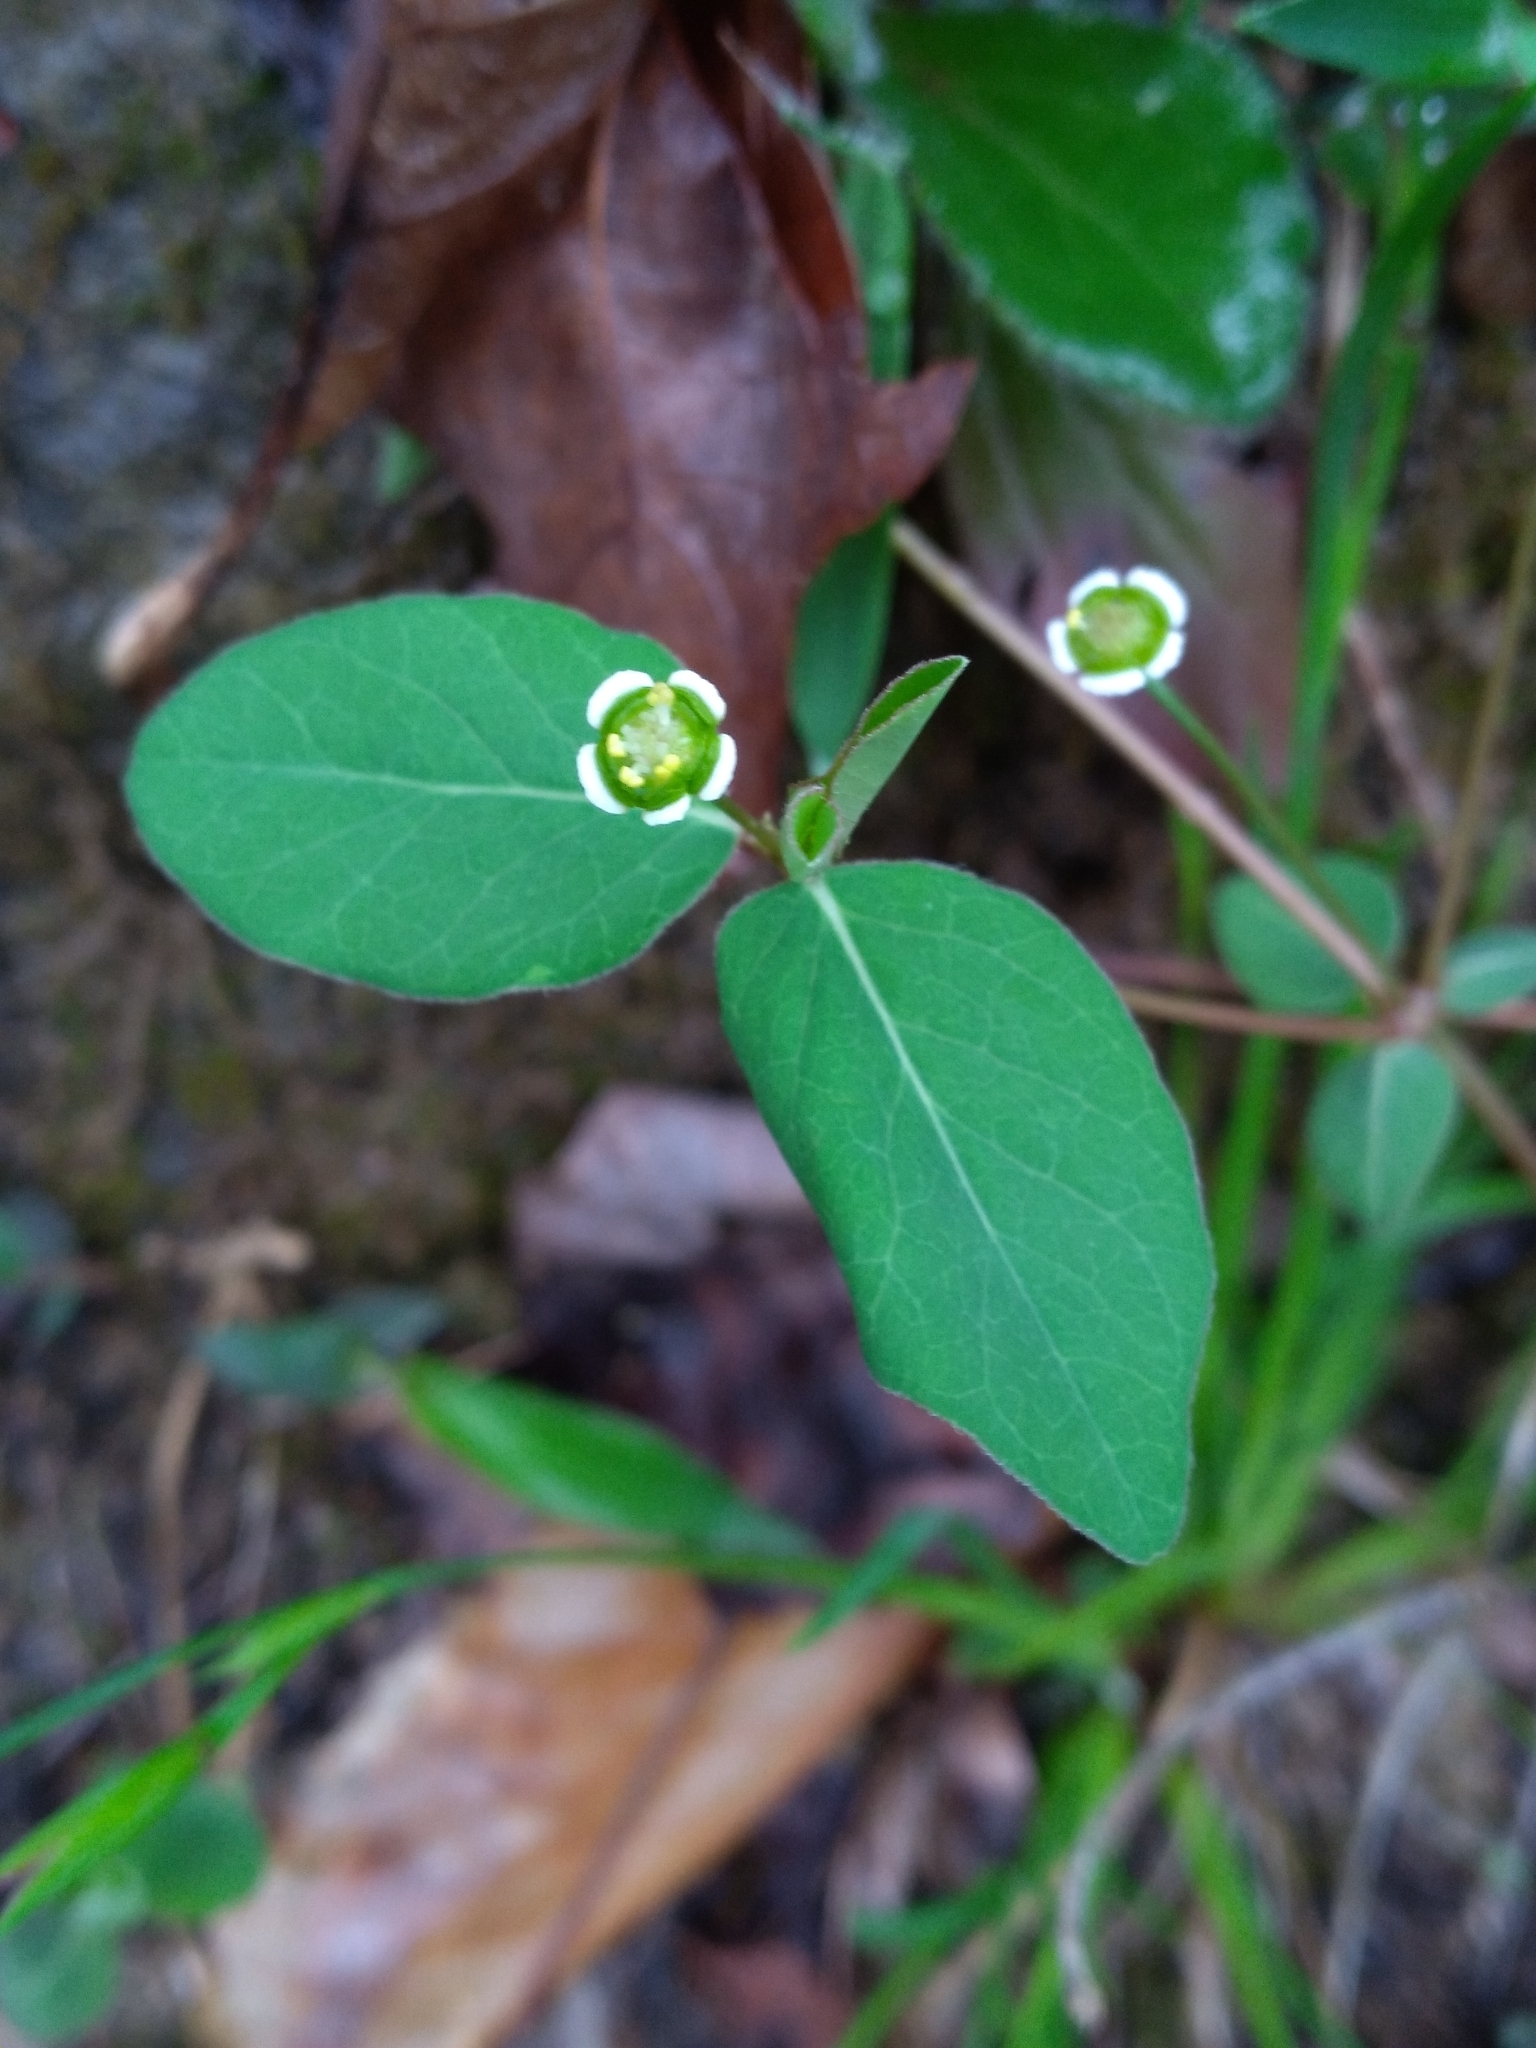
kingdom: Plantae
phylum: Tracheophyta
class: Magnoliopsida
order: Malpighiales
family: Euphorbiaceae
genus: Euphorbia
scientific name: Euphorbia mercurialina
